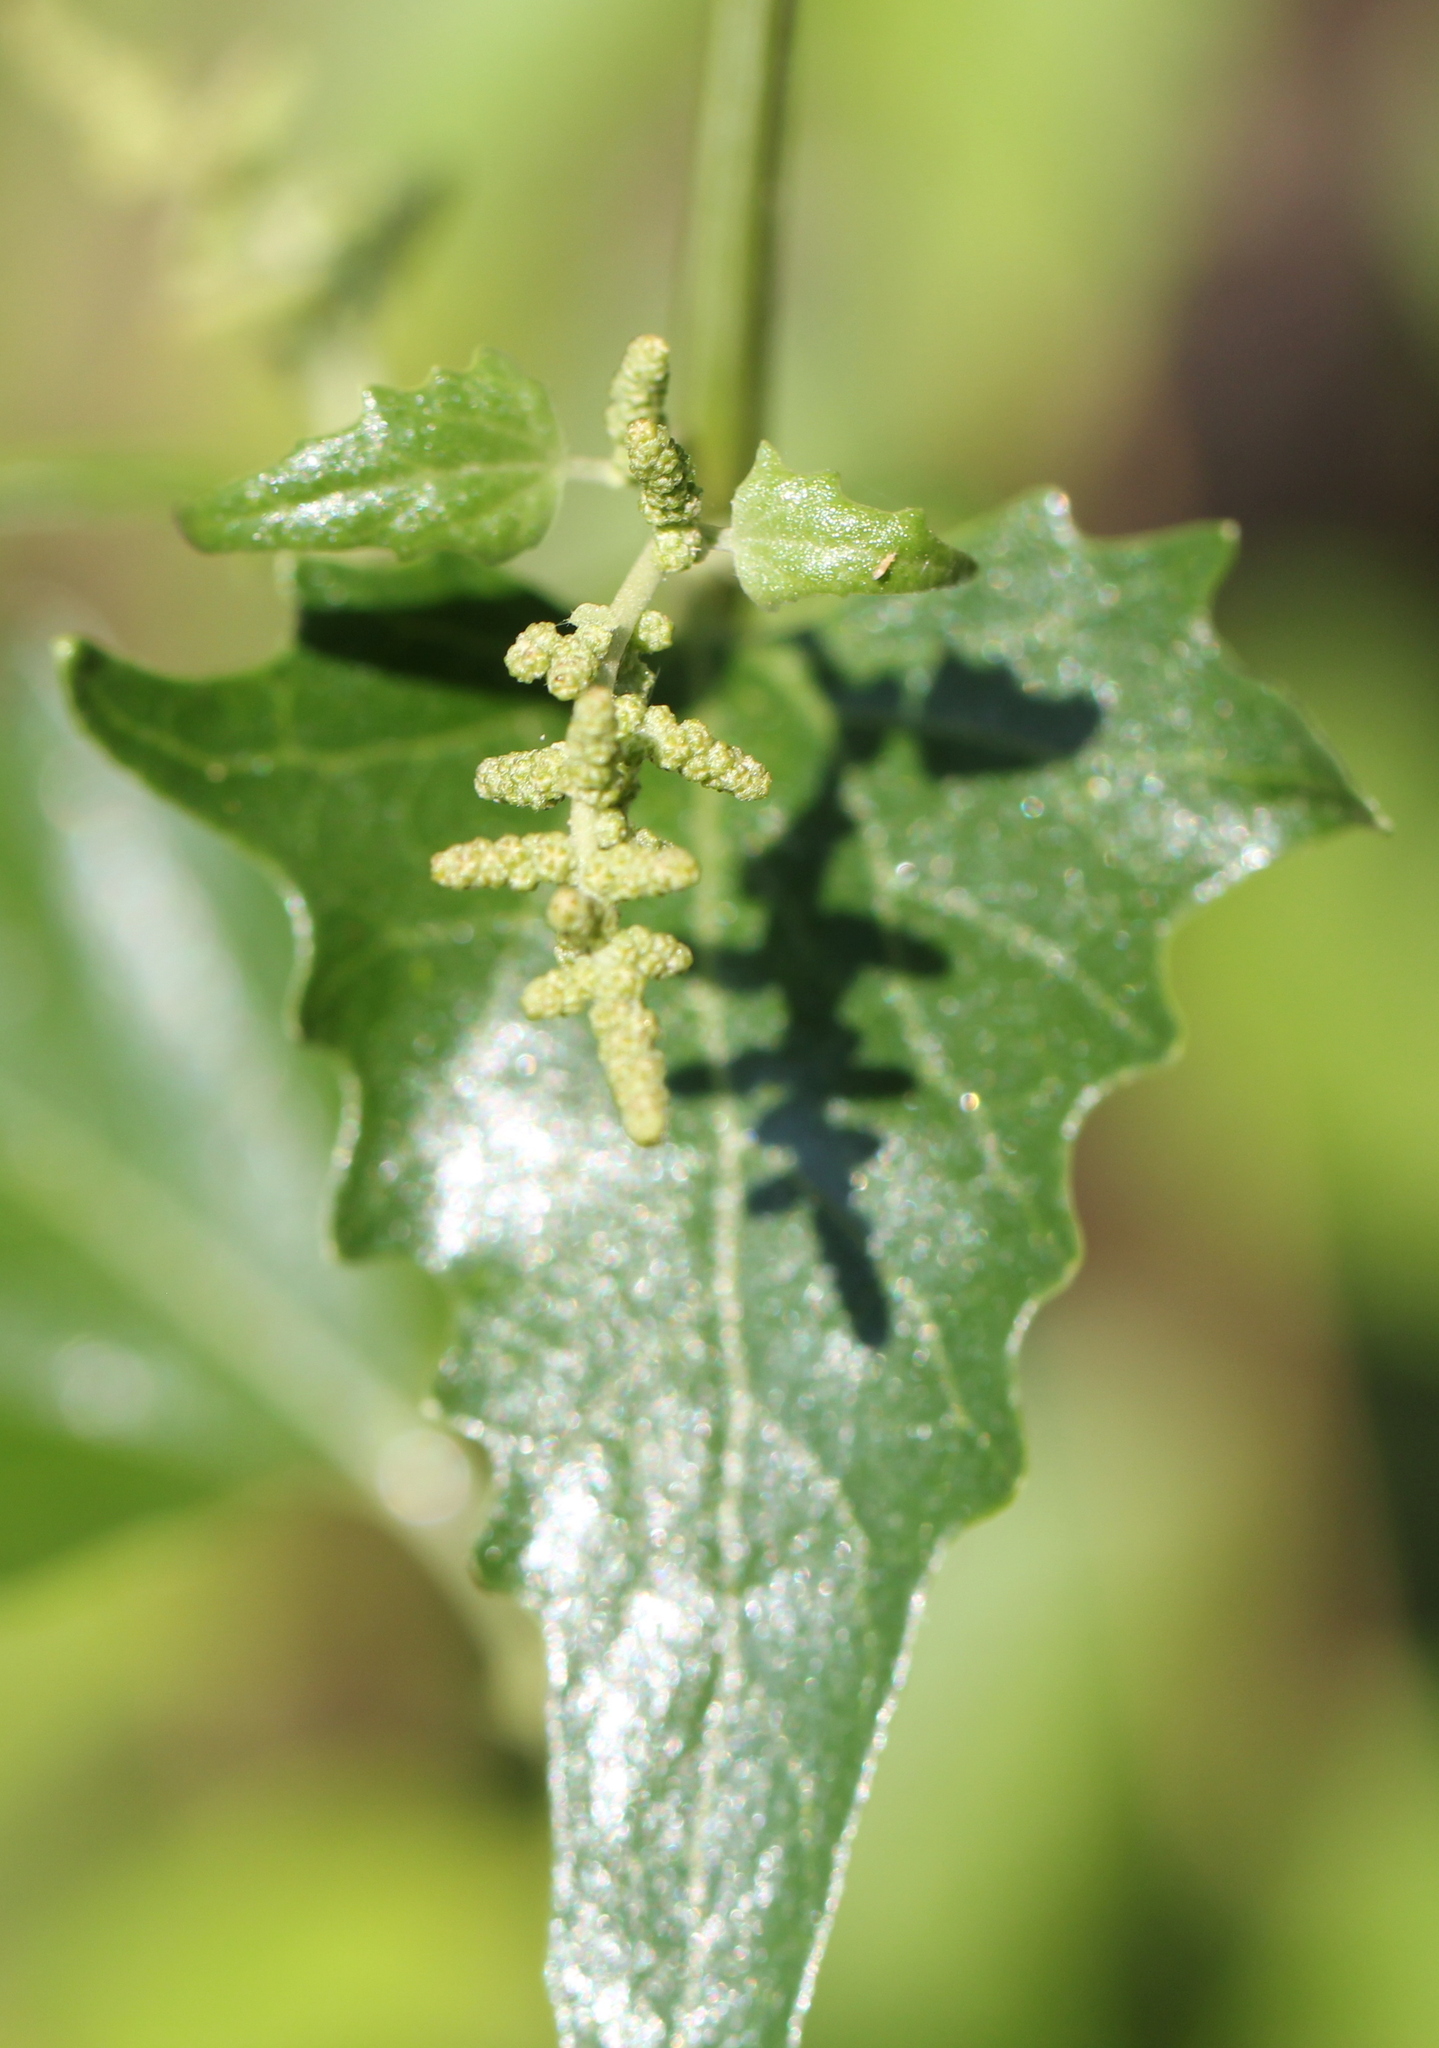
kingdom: Plantae
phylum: Tracheophyta
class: Magnoliopsida
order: Caryophyllales
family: Amaranthaceae
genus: Atriplex
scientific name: Atriplex sagittata
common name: Purple orache
